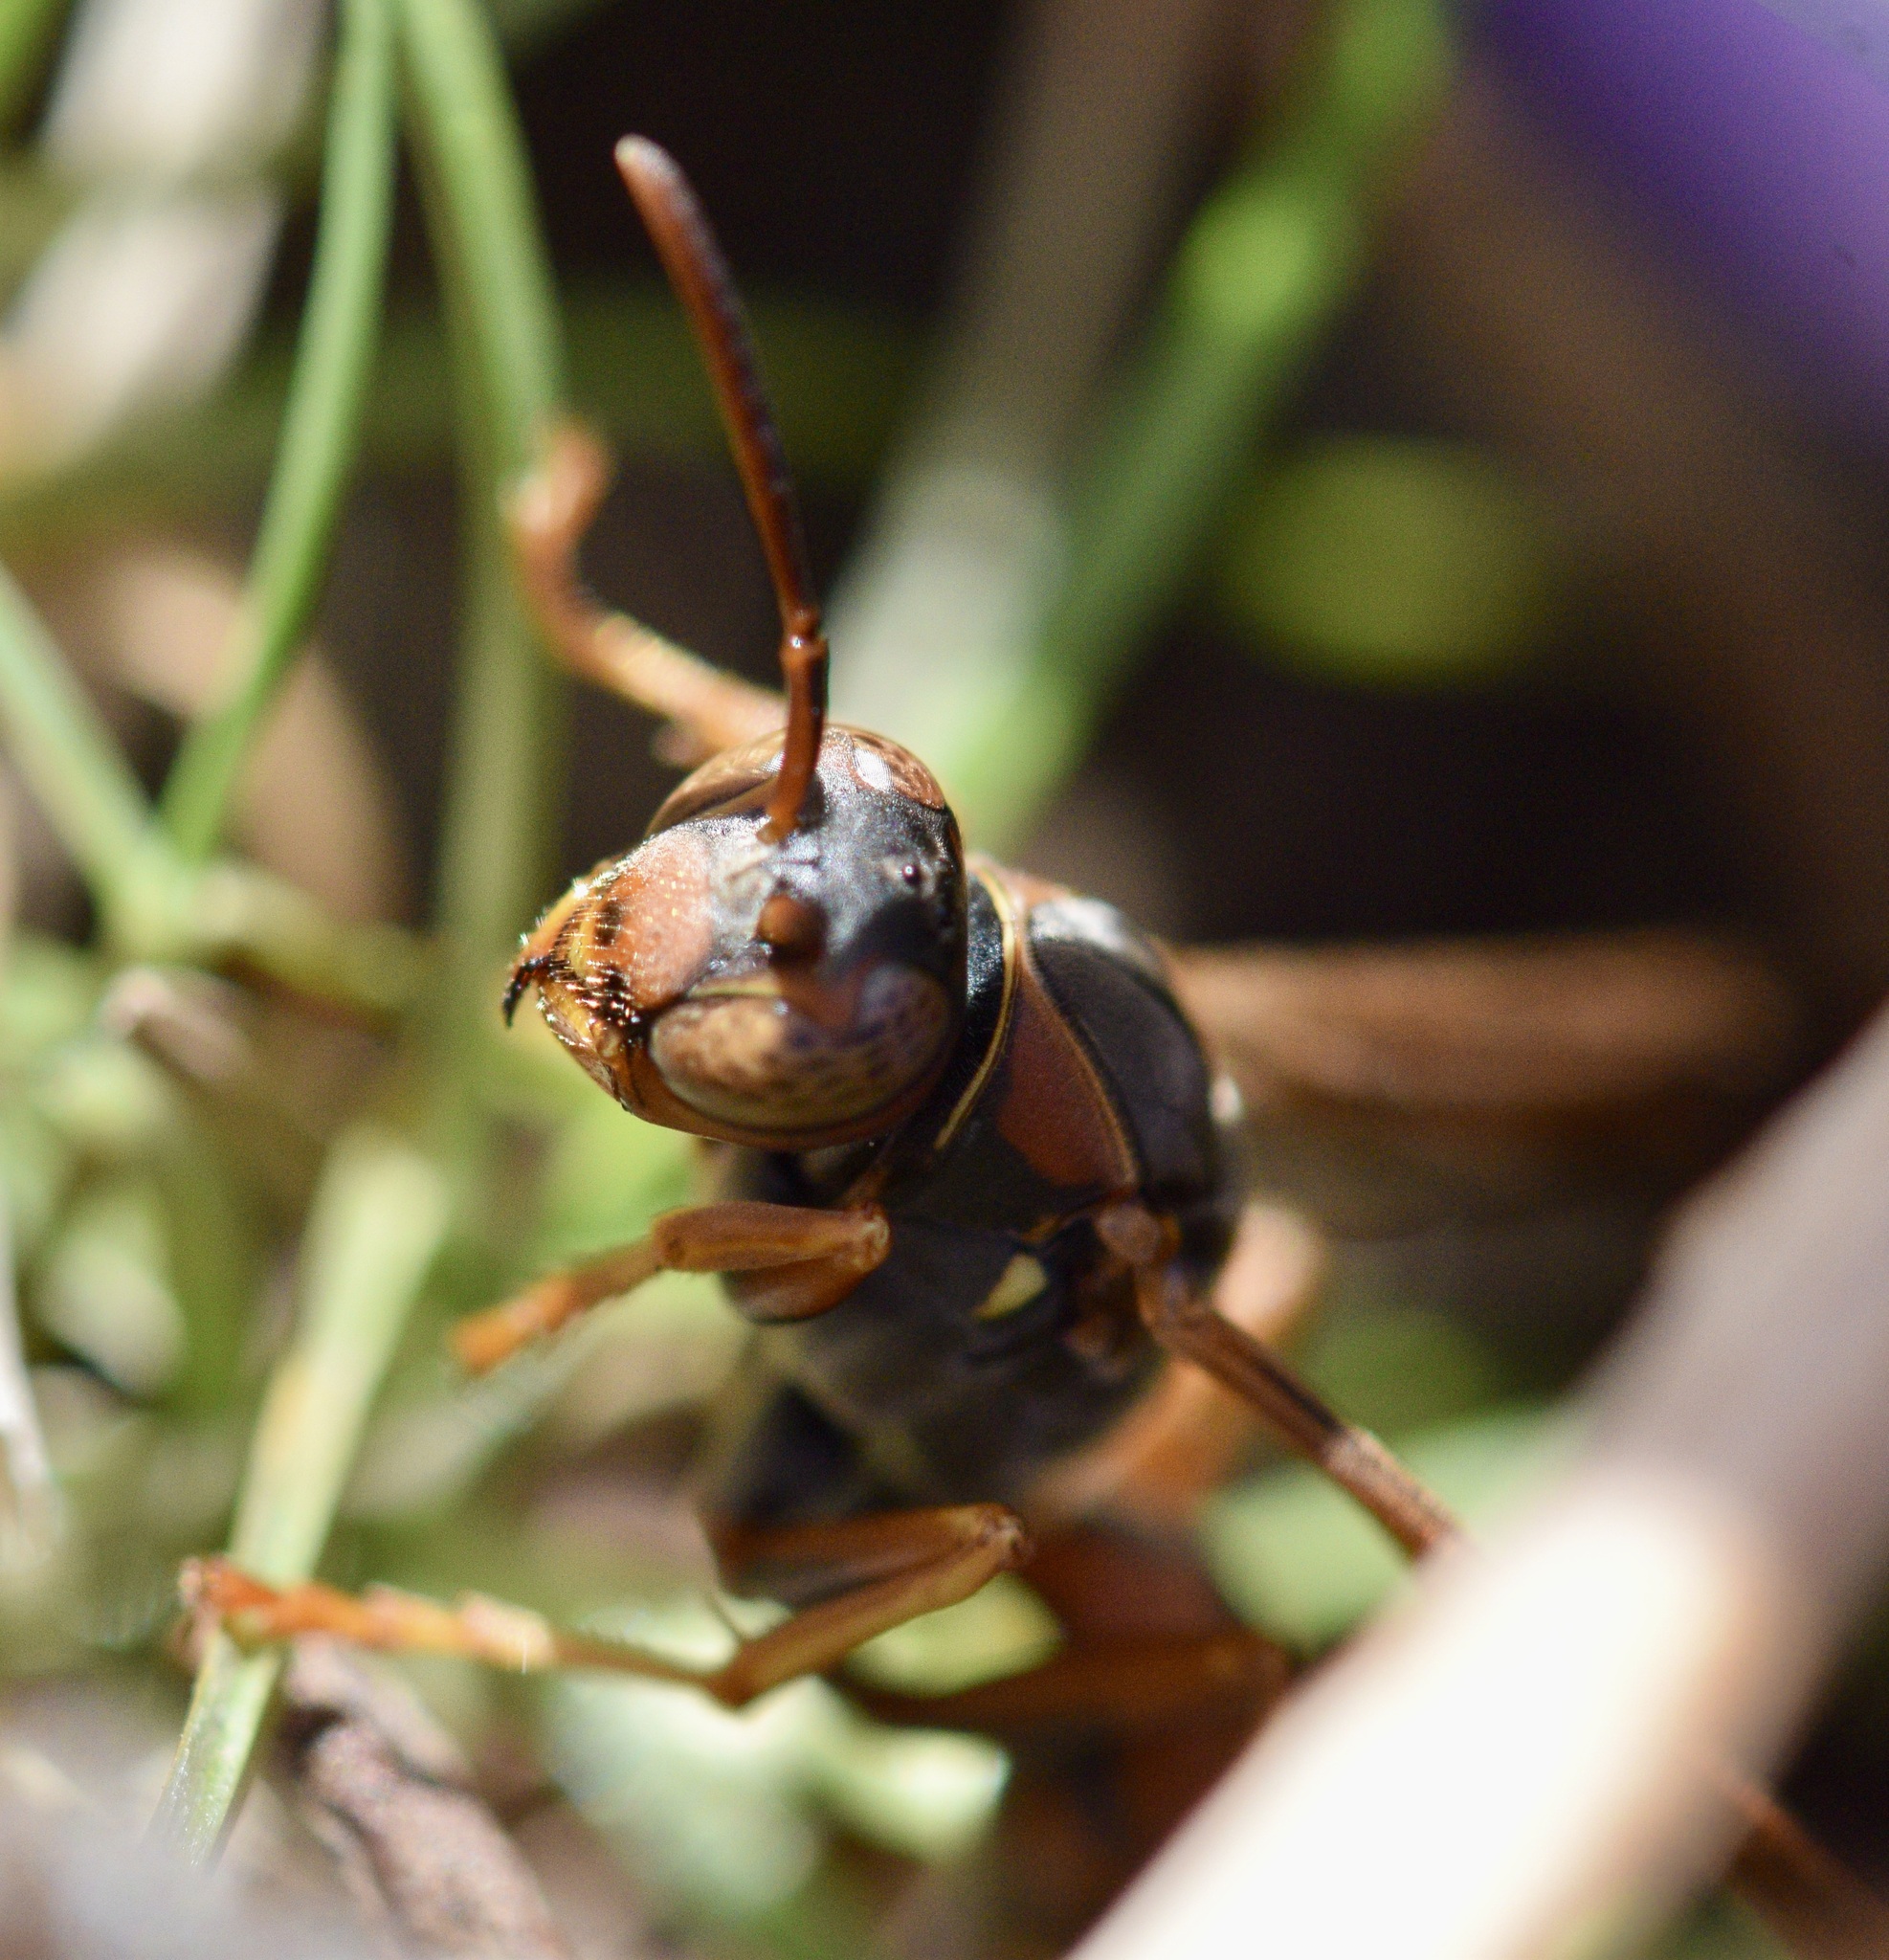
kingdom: Animalia
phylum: Arthropoda
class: Insecta
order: Hymenoptera
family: Eumenidae
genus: Polistes
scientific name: Polistes fuscatus
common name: Dark paper wasp
